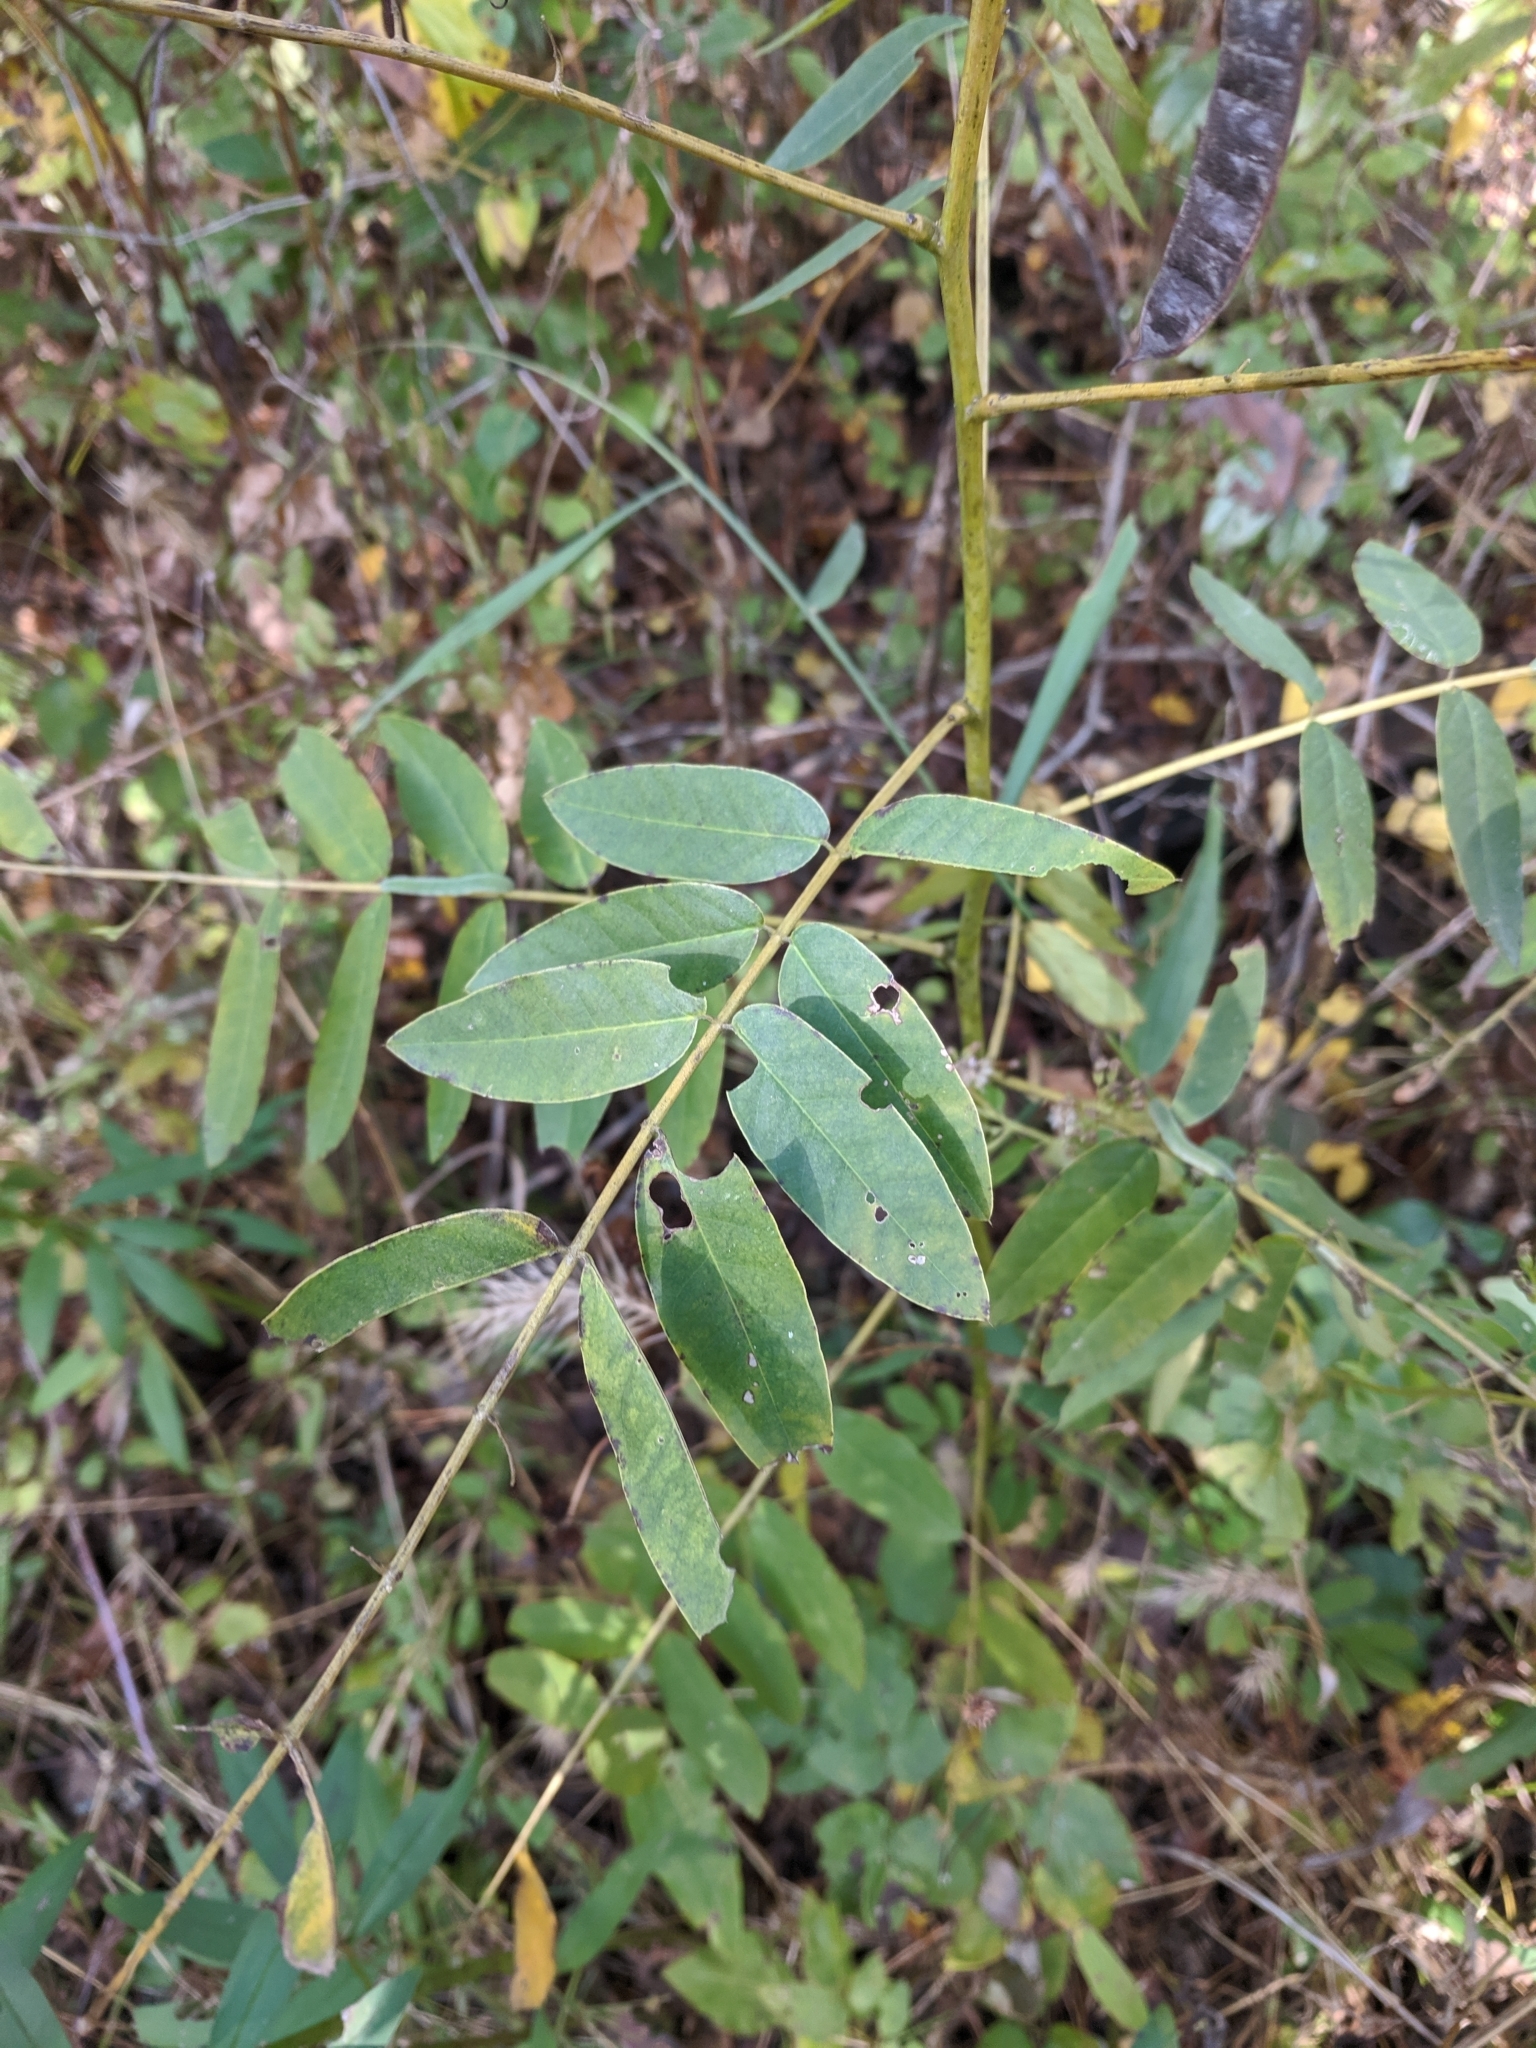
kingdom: Plantae
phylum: Tracheophyta
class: Magnoliopsida
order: Fabales
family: Fabaceae
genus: Senna
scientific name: Senna marilandica
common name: American senna
